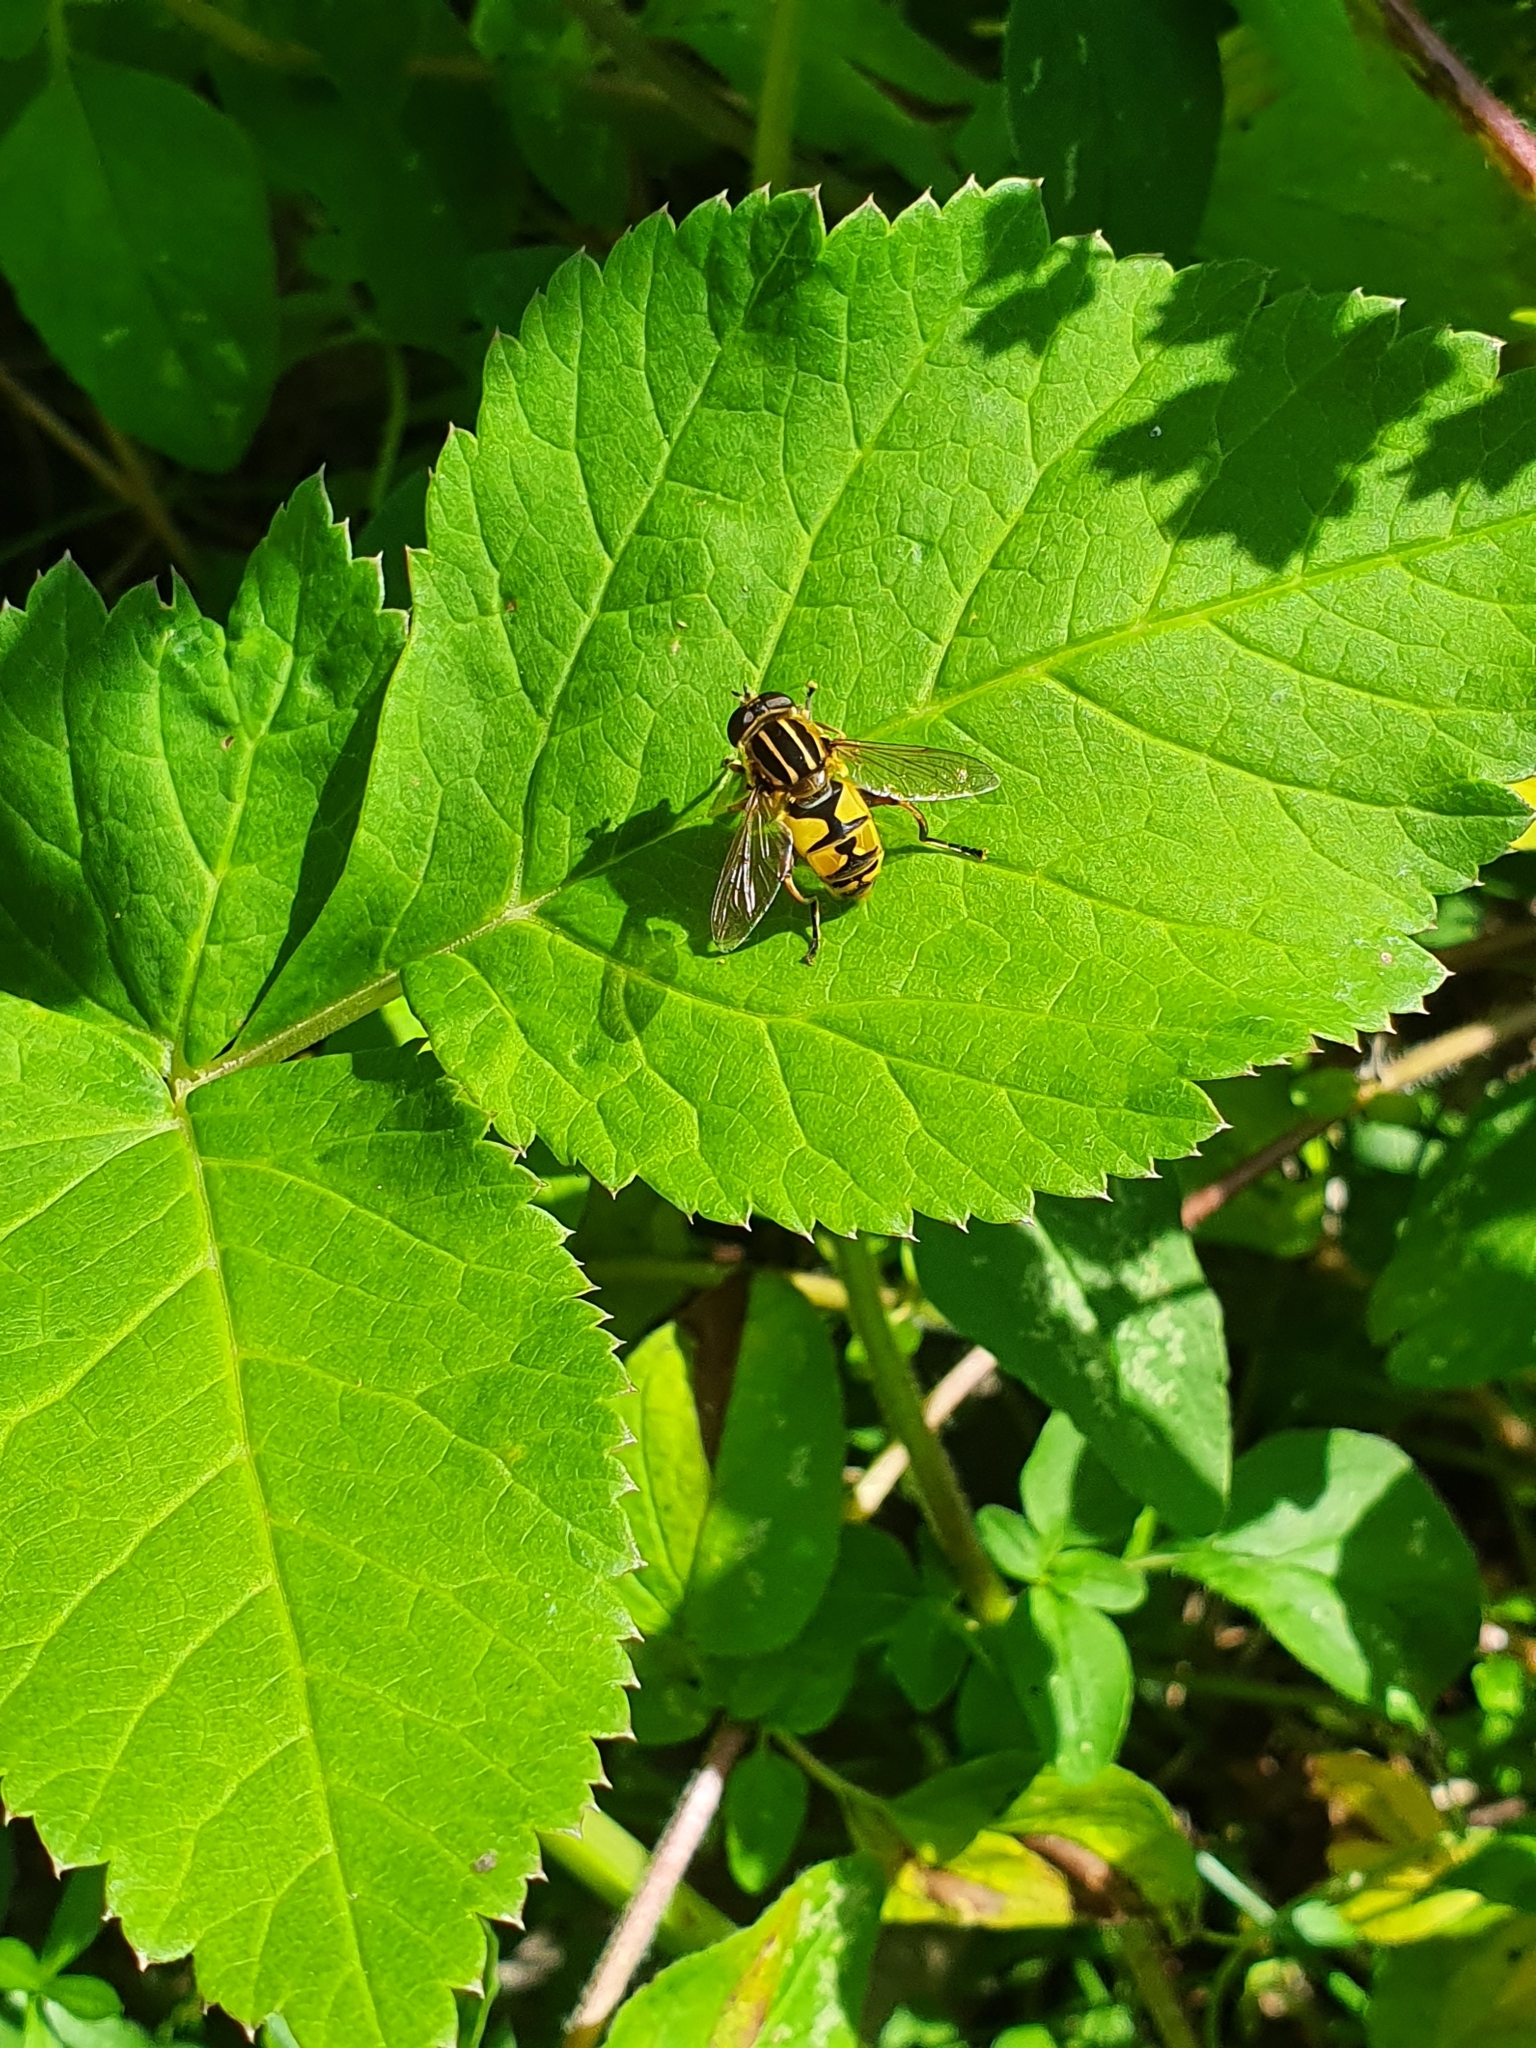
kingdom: Animalia
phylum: Arthropoda
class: Insecta
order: Diptera
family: Syrphidae
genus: Helophilus
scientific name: Helophilus pendulus
